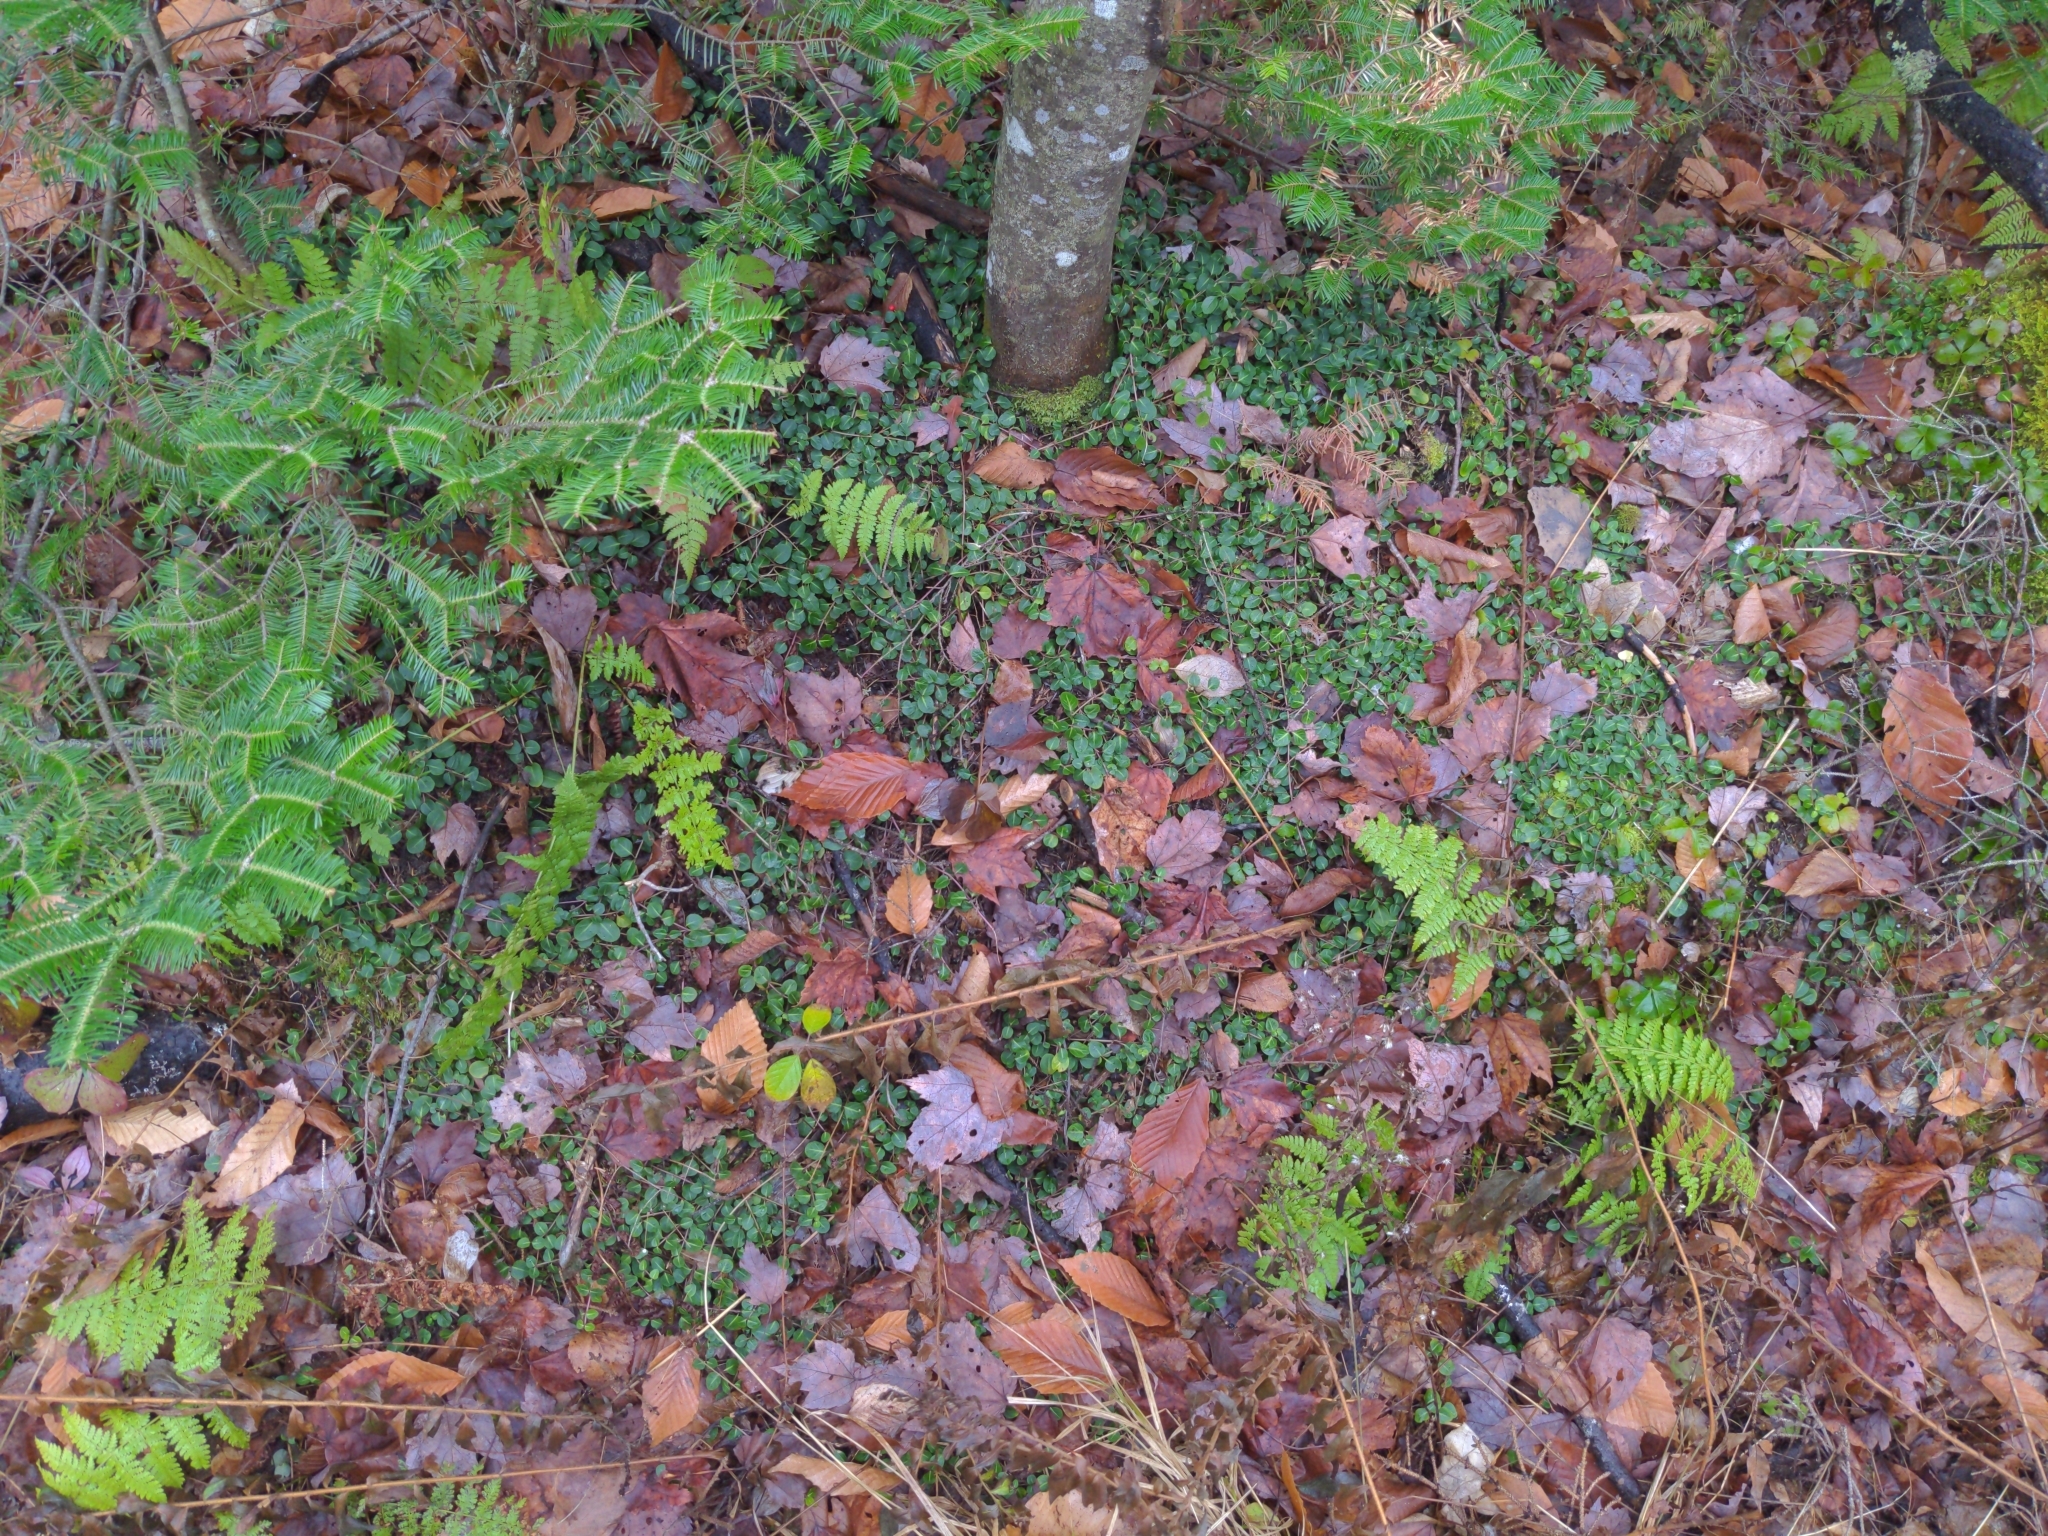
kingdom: Plantae
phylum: Tracheophyta
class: Magnoliopsida
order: Gentianales
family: Rubiaceae
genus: Mitchella
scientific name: Mitchella repens
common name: Partridge-berry
